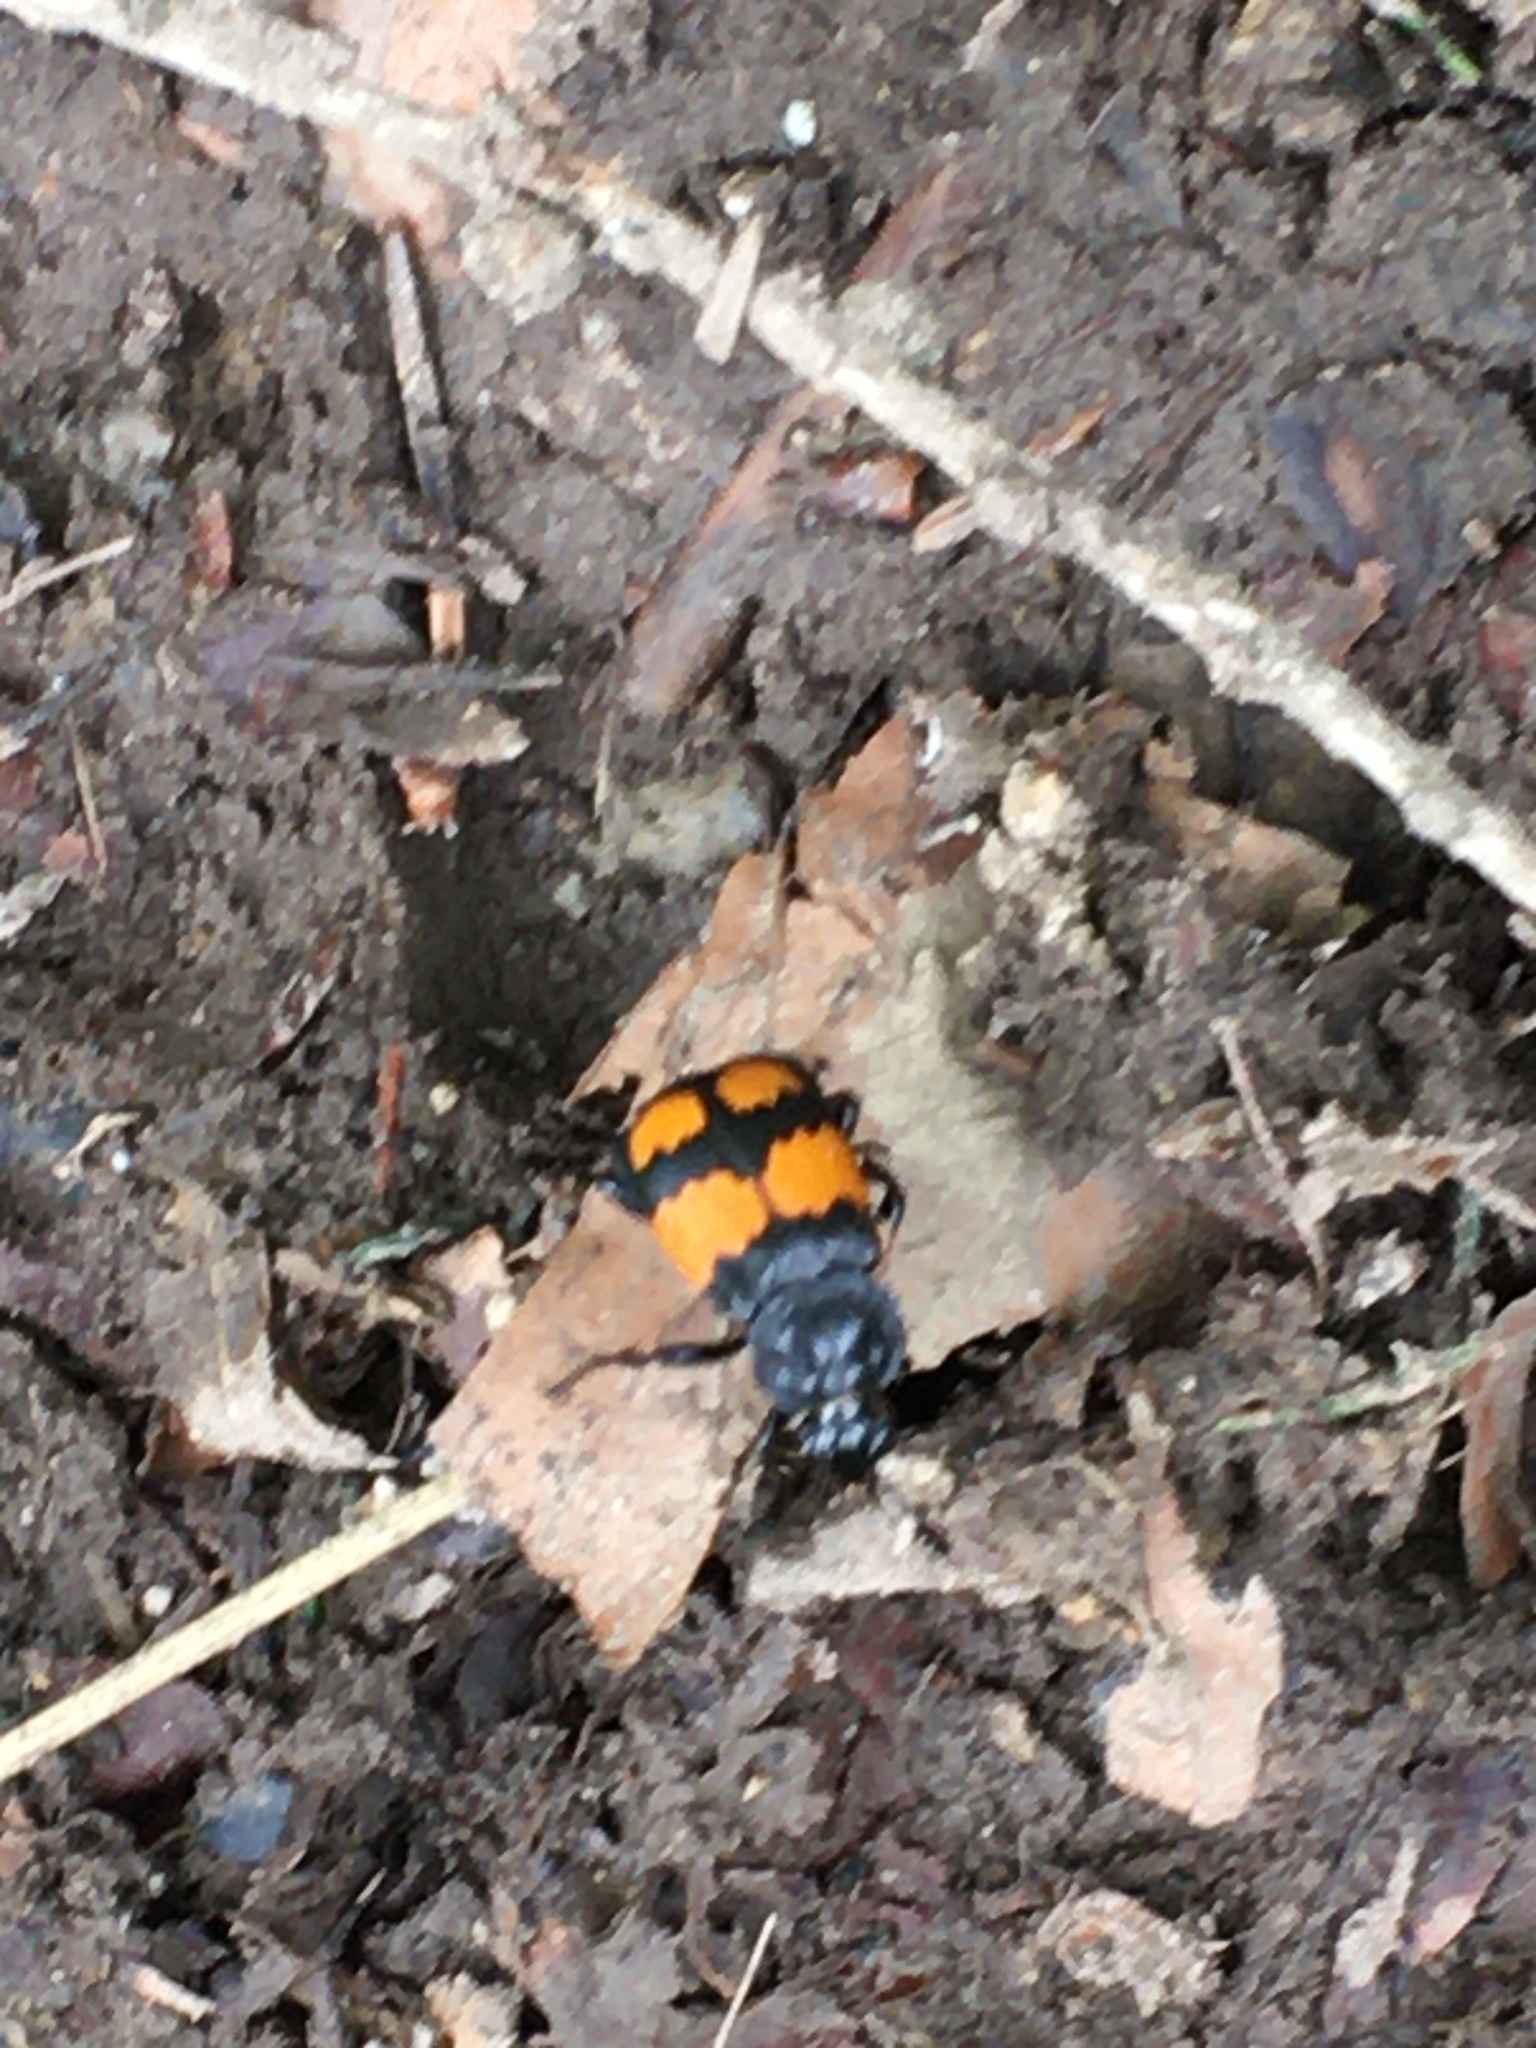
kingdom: Animalia
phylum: Arthropoda
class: Insecta
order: Coleoptera
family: Staphylinidae
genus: Nicrophorus
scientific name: Nicrophorus vespilloides
